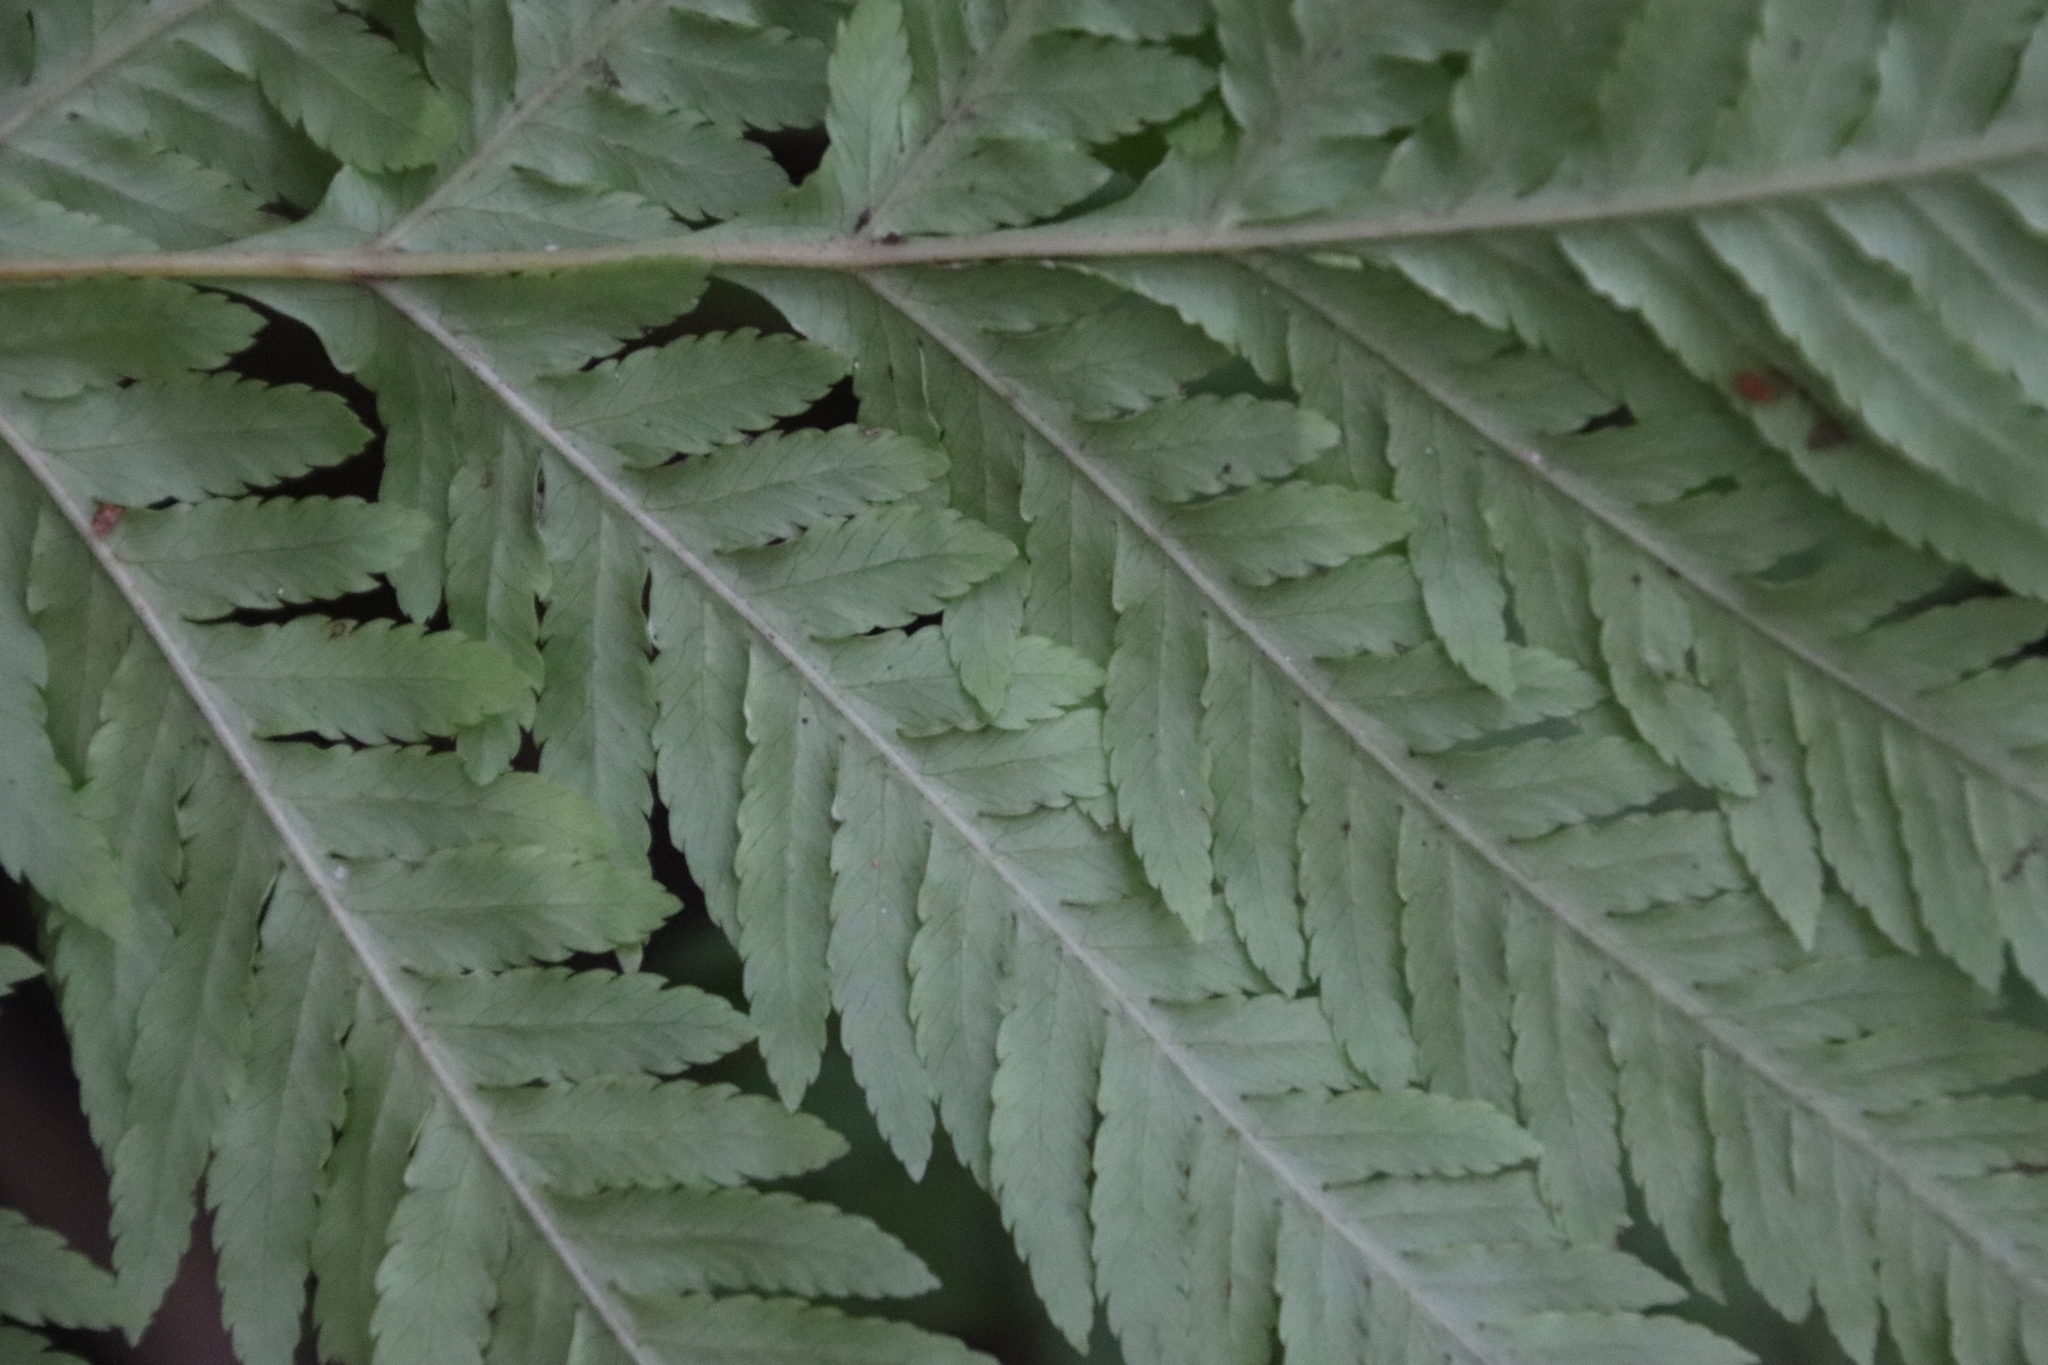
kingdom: Plantae
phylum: Tracheophyta
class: Polypodiopsida
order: Polypodiales
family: Pteridaceae
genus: Pteris
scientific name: Pteris dentata
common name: Toothed brake
